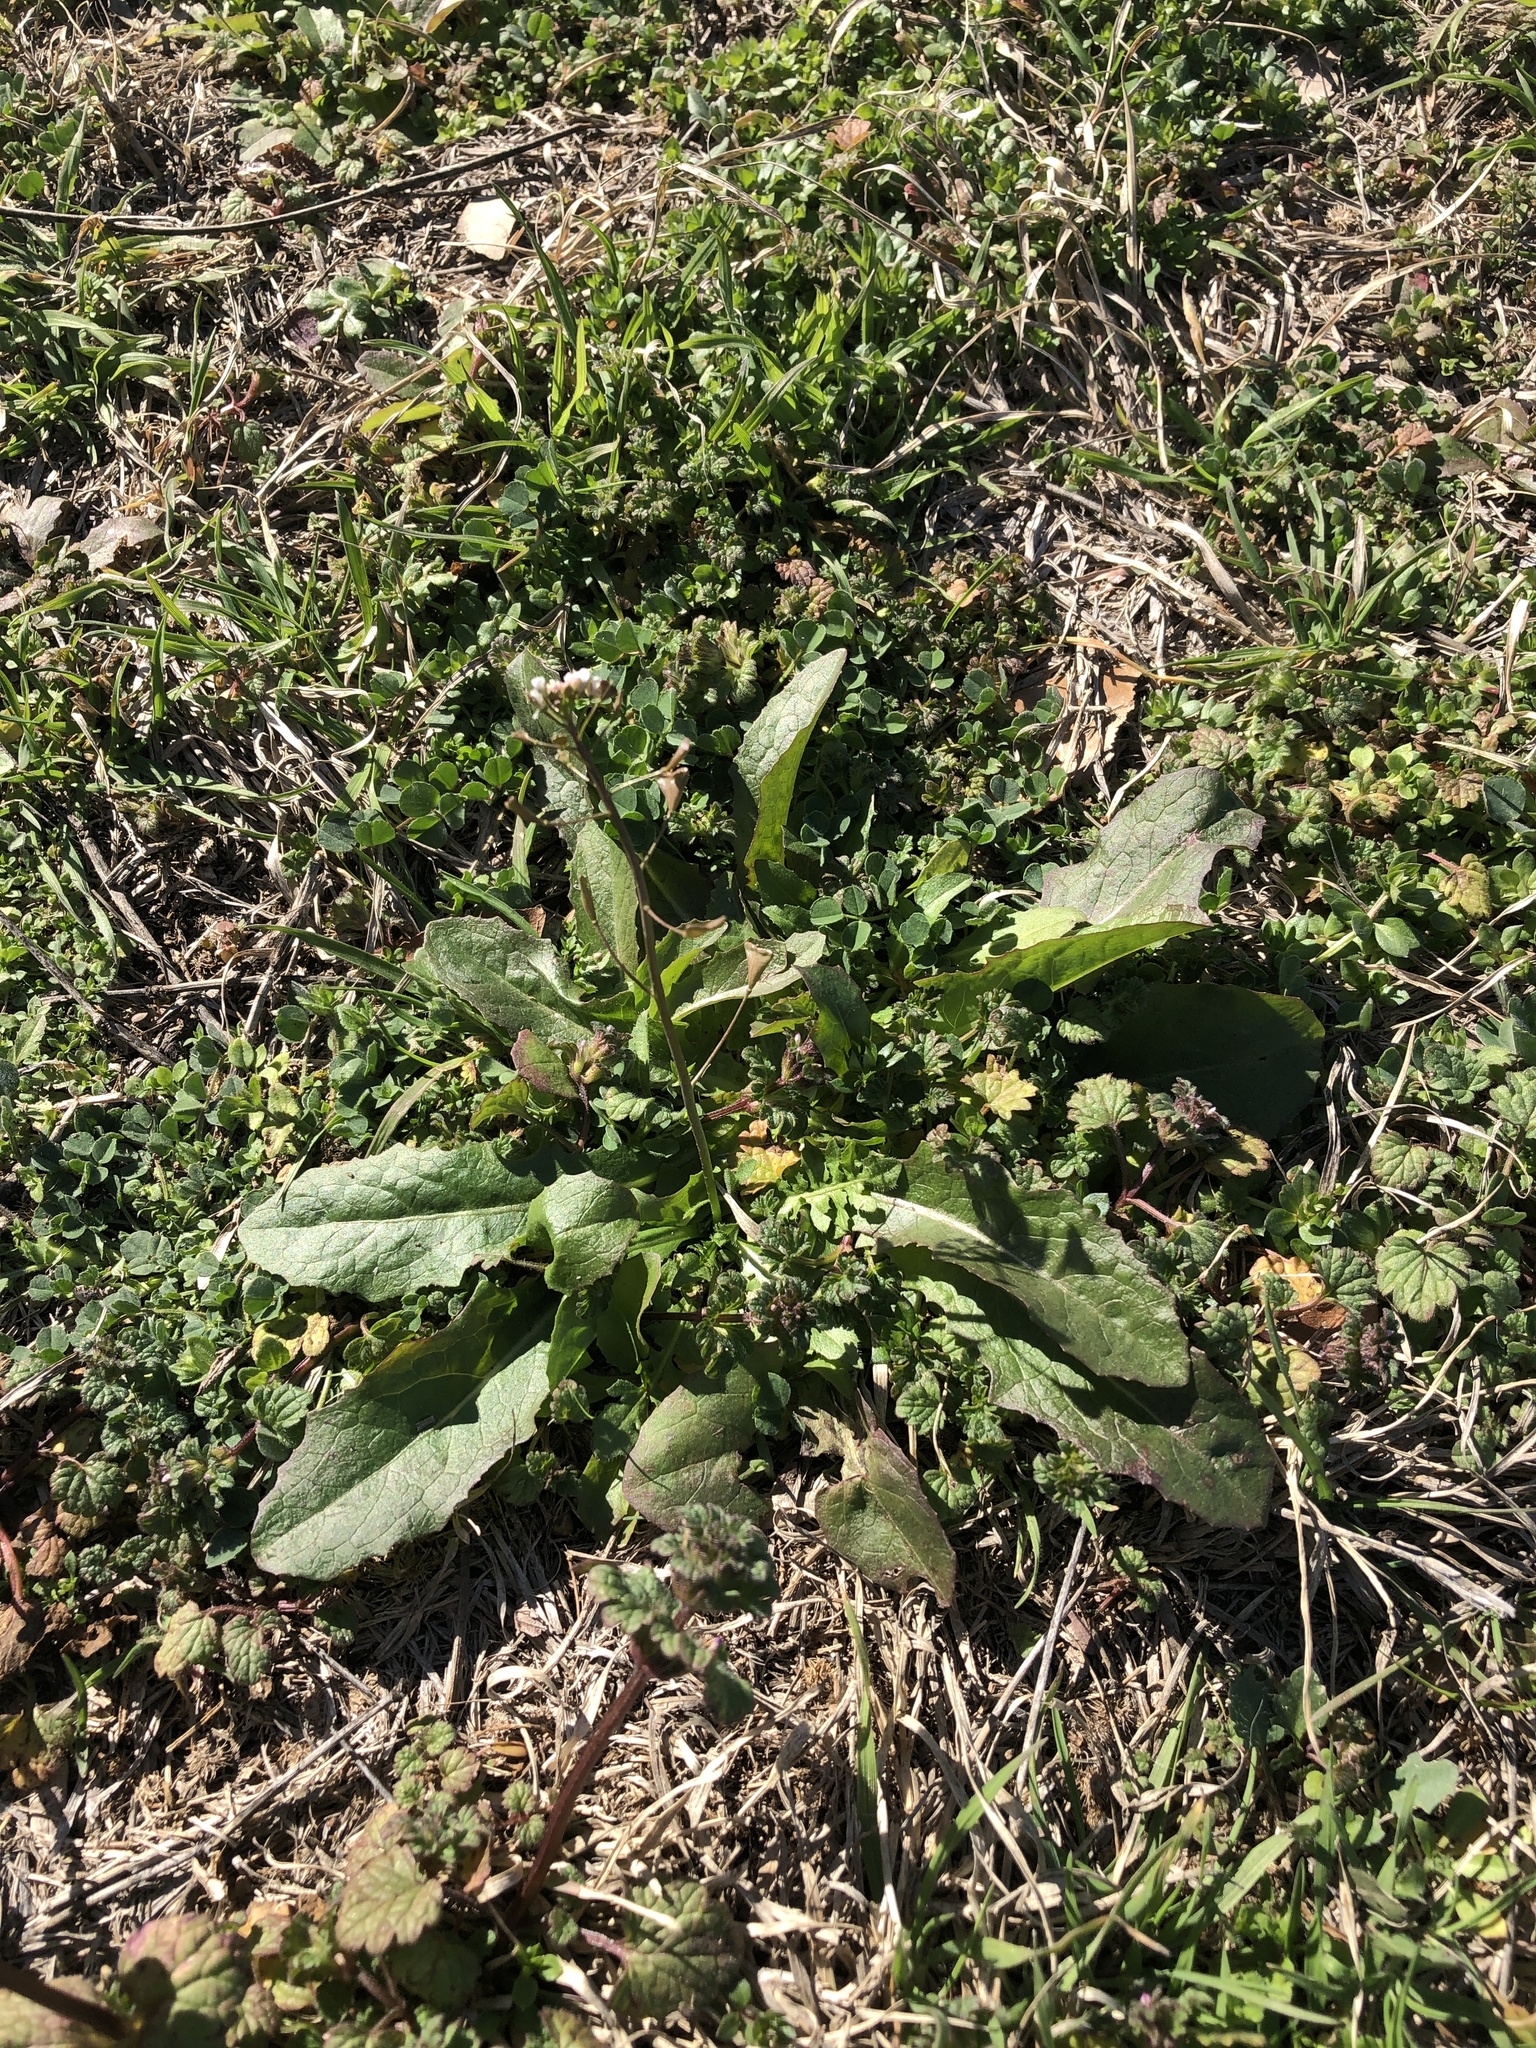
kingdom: Plantae
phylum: Tracheophyta
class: Magnoliopsida
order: Brassicales
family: Brassicaceae
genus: Capsella
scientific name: Capsella bursa-pastoris
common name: Shepherd's purse
